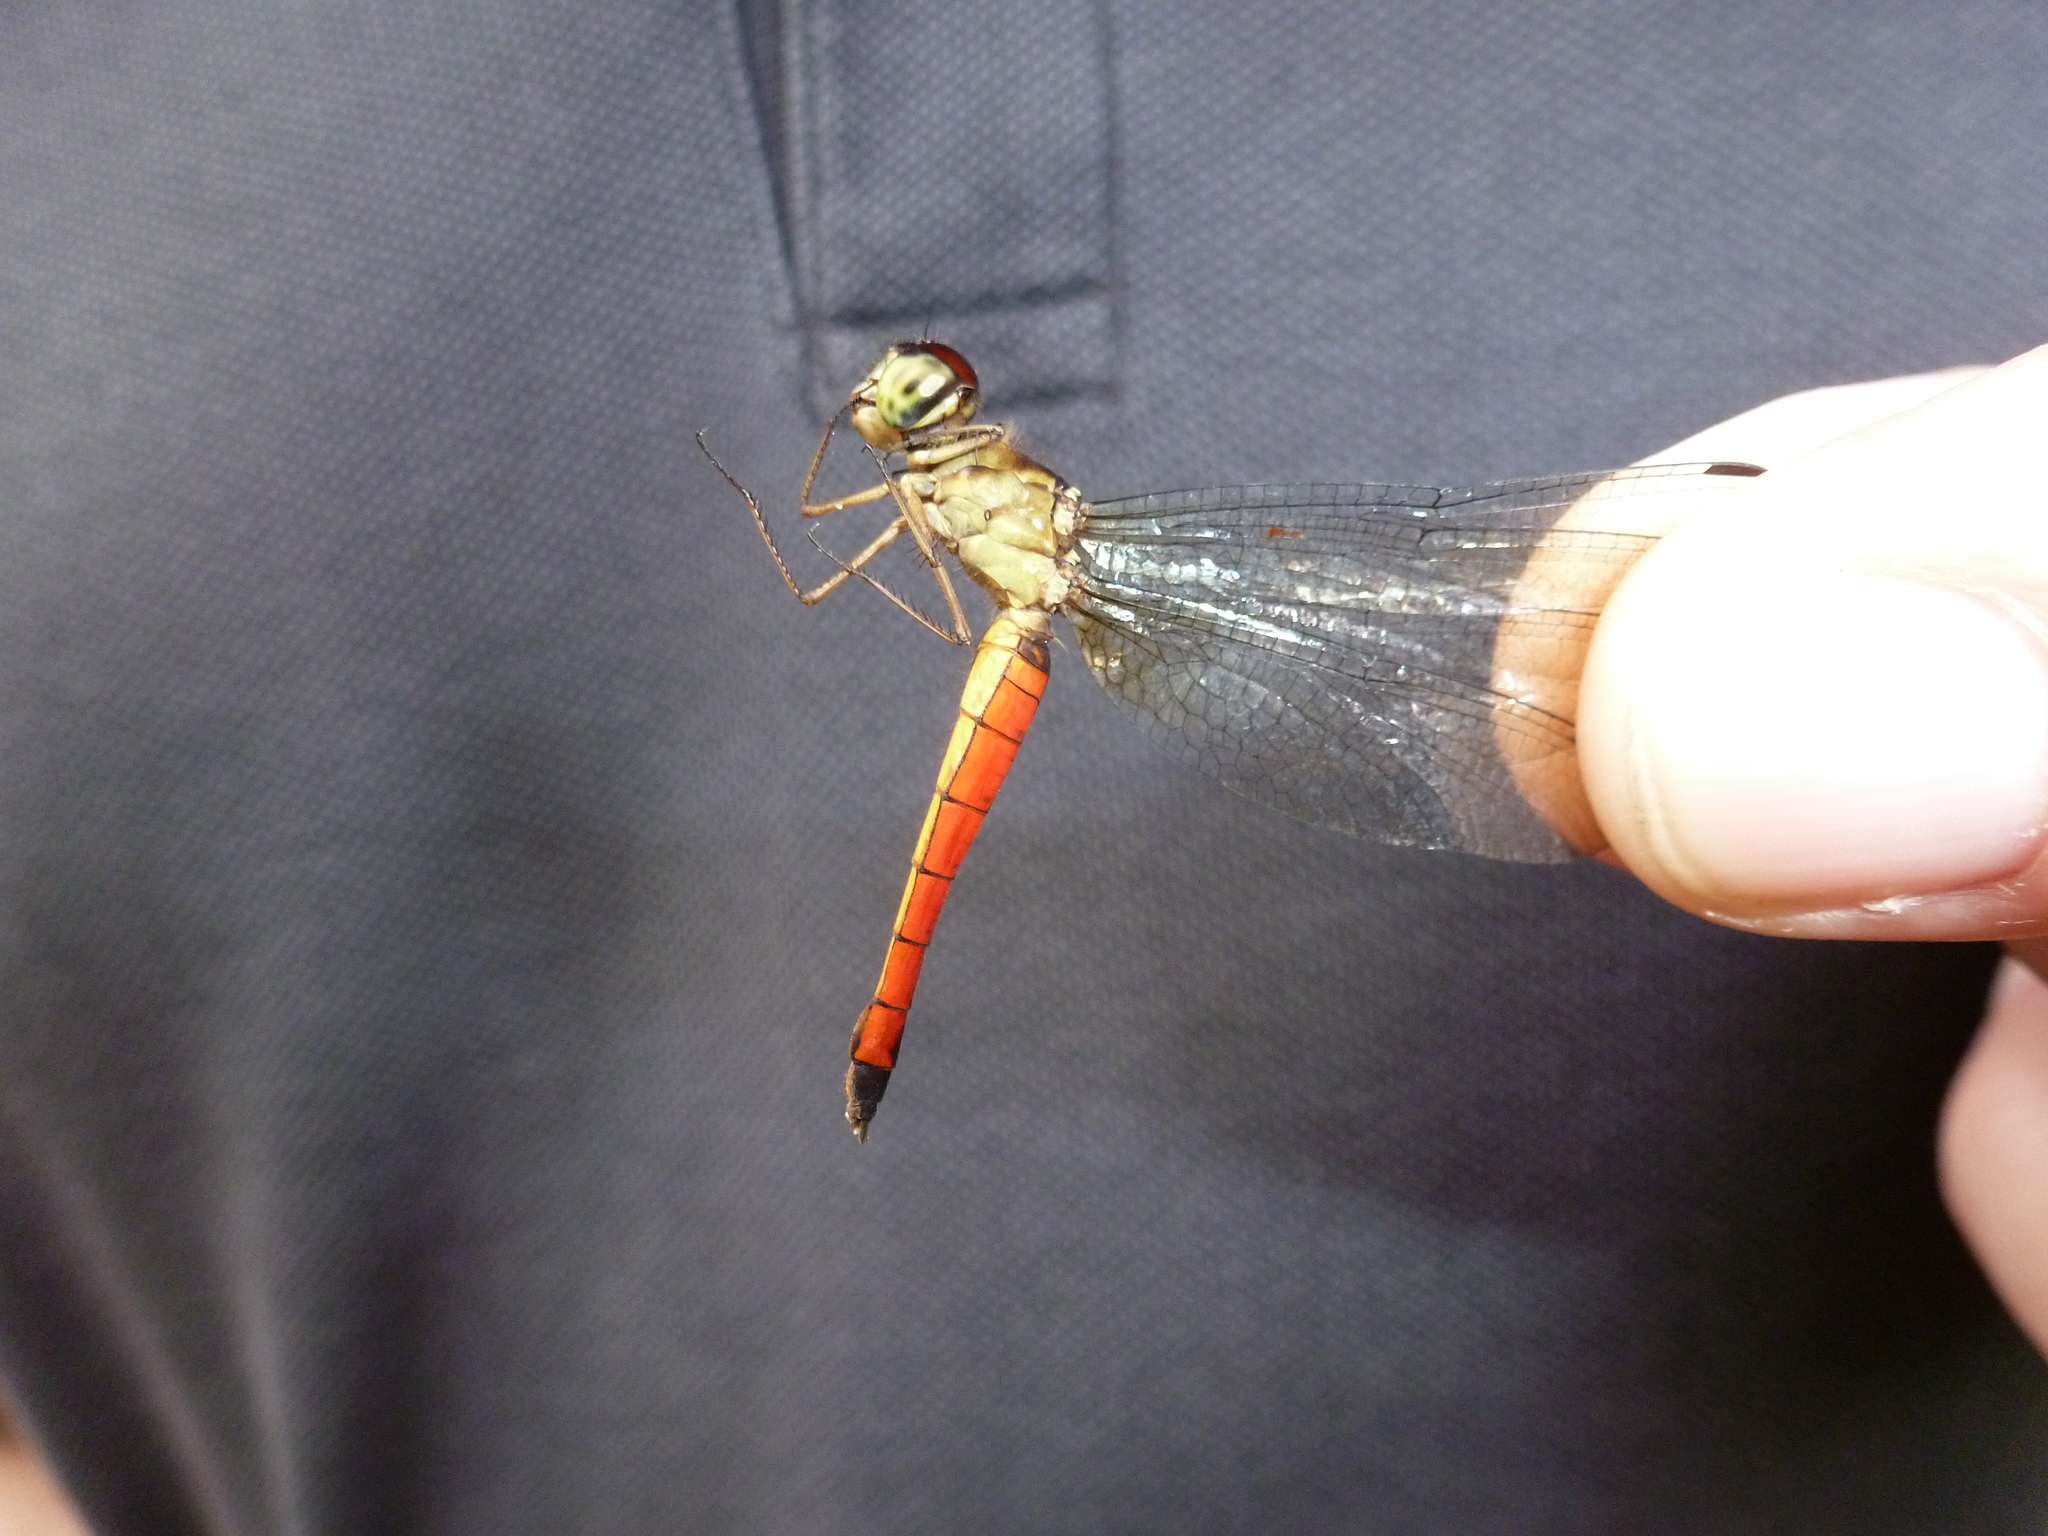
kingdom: Animalia
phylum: Arthropoda
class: Insecta
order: Odonata
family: Libellulidae
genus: Orchithemis
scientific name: Orchithemis pulcherrima
